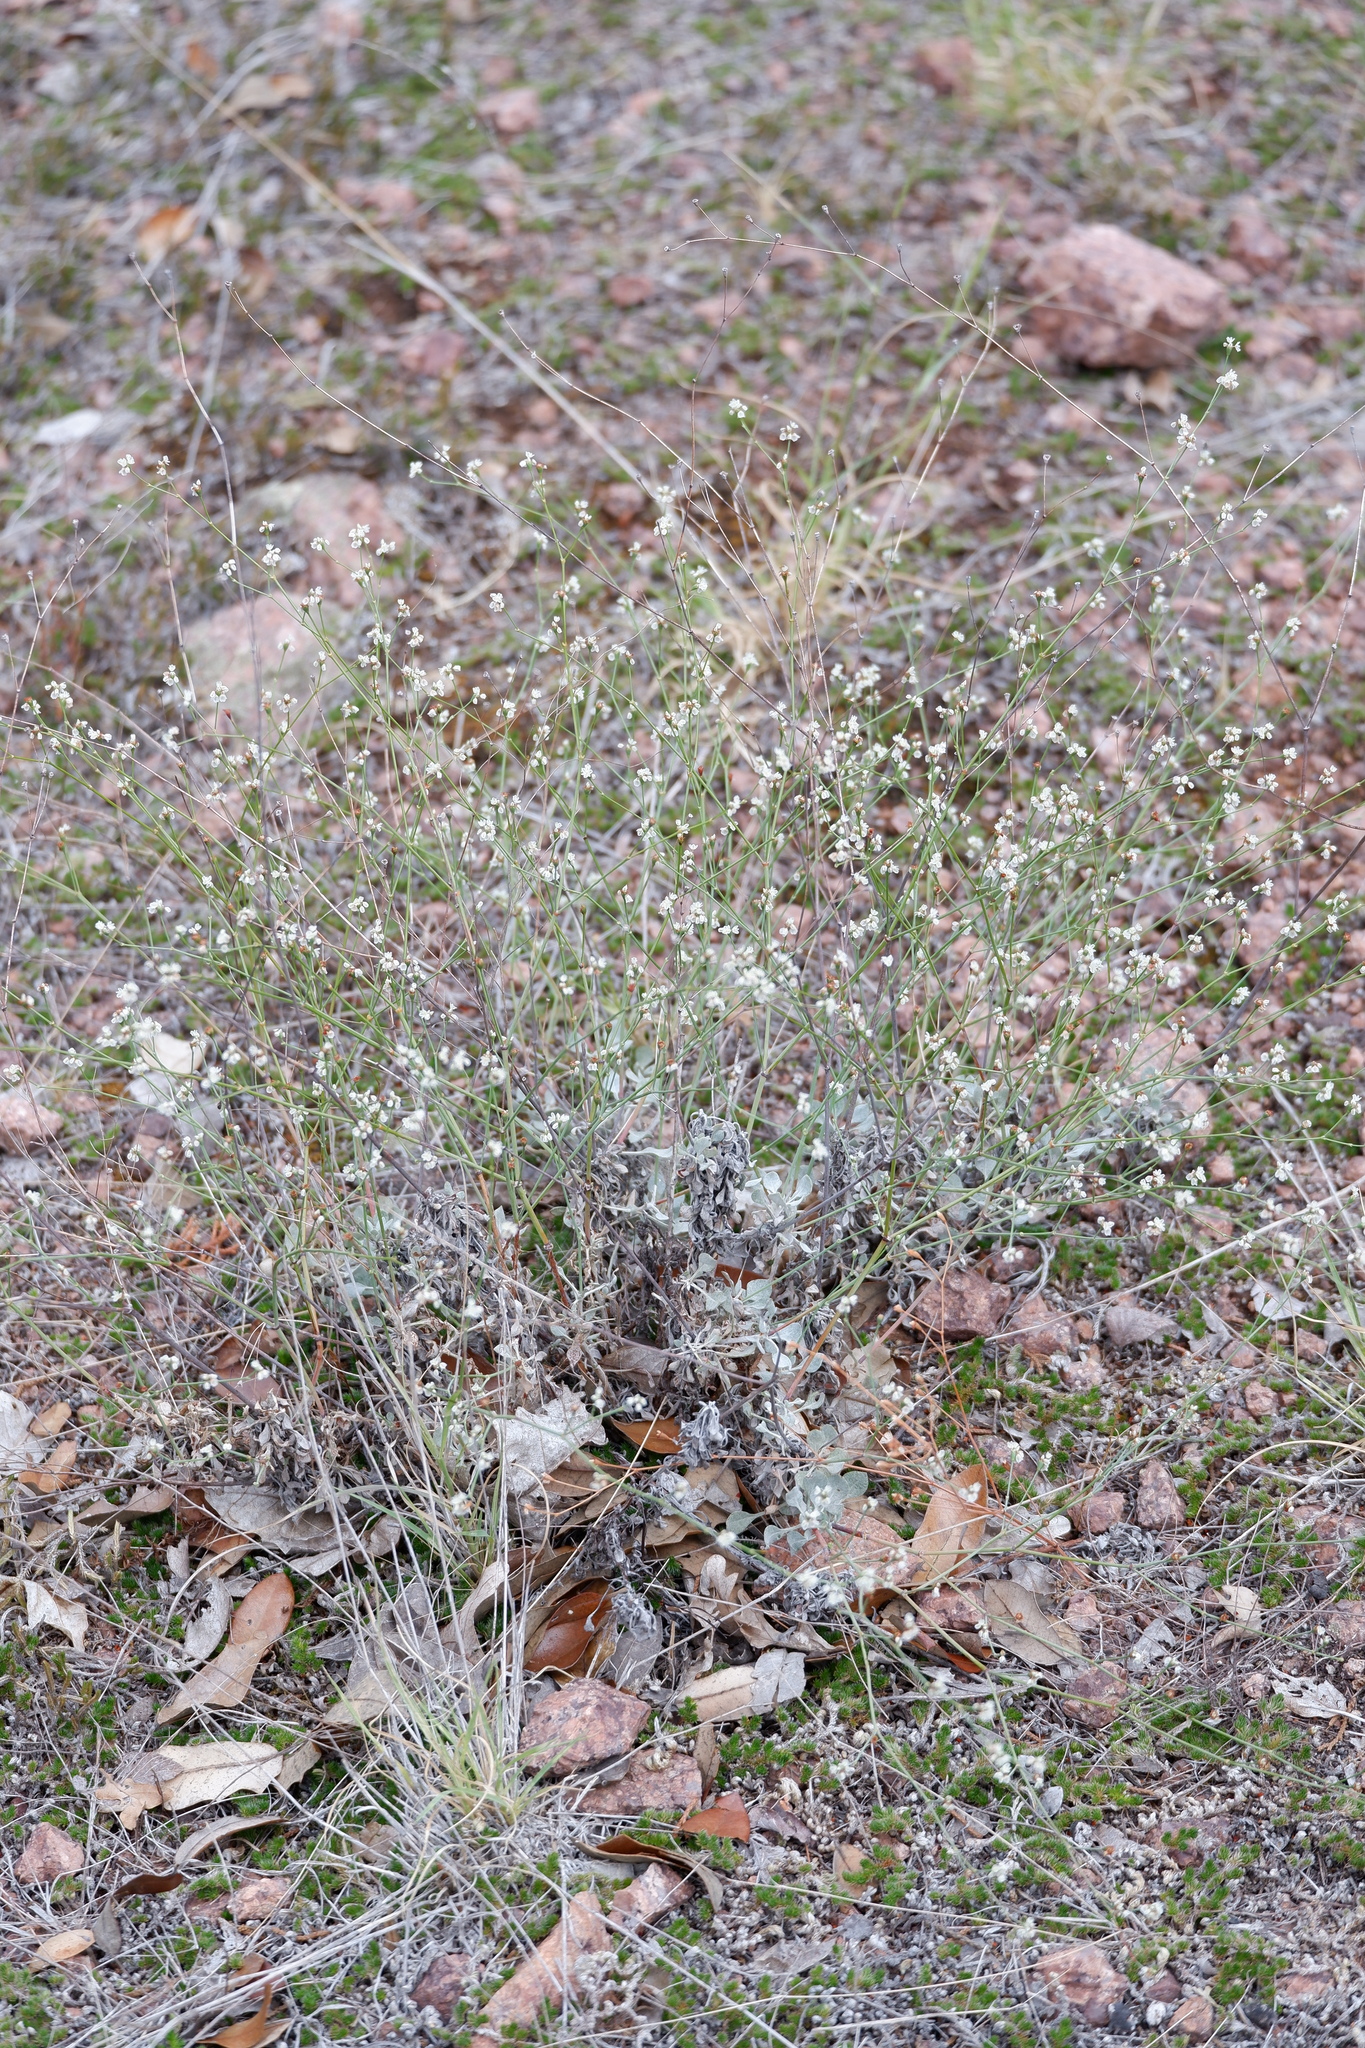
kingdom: Plantae
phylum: Tracheophyta
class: Magnoliopsida
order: Caryophyllales
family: Polygonaceae
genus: Eriogonum
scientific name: Eriogonum tenellum
